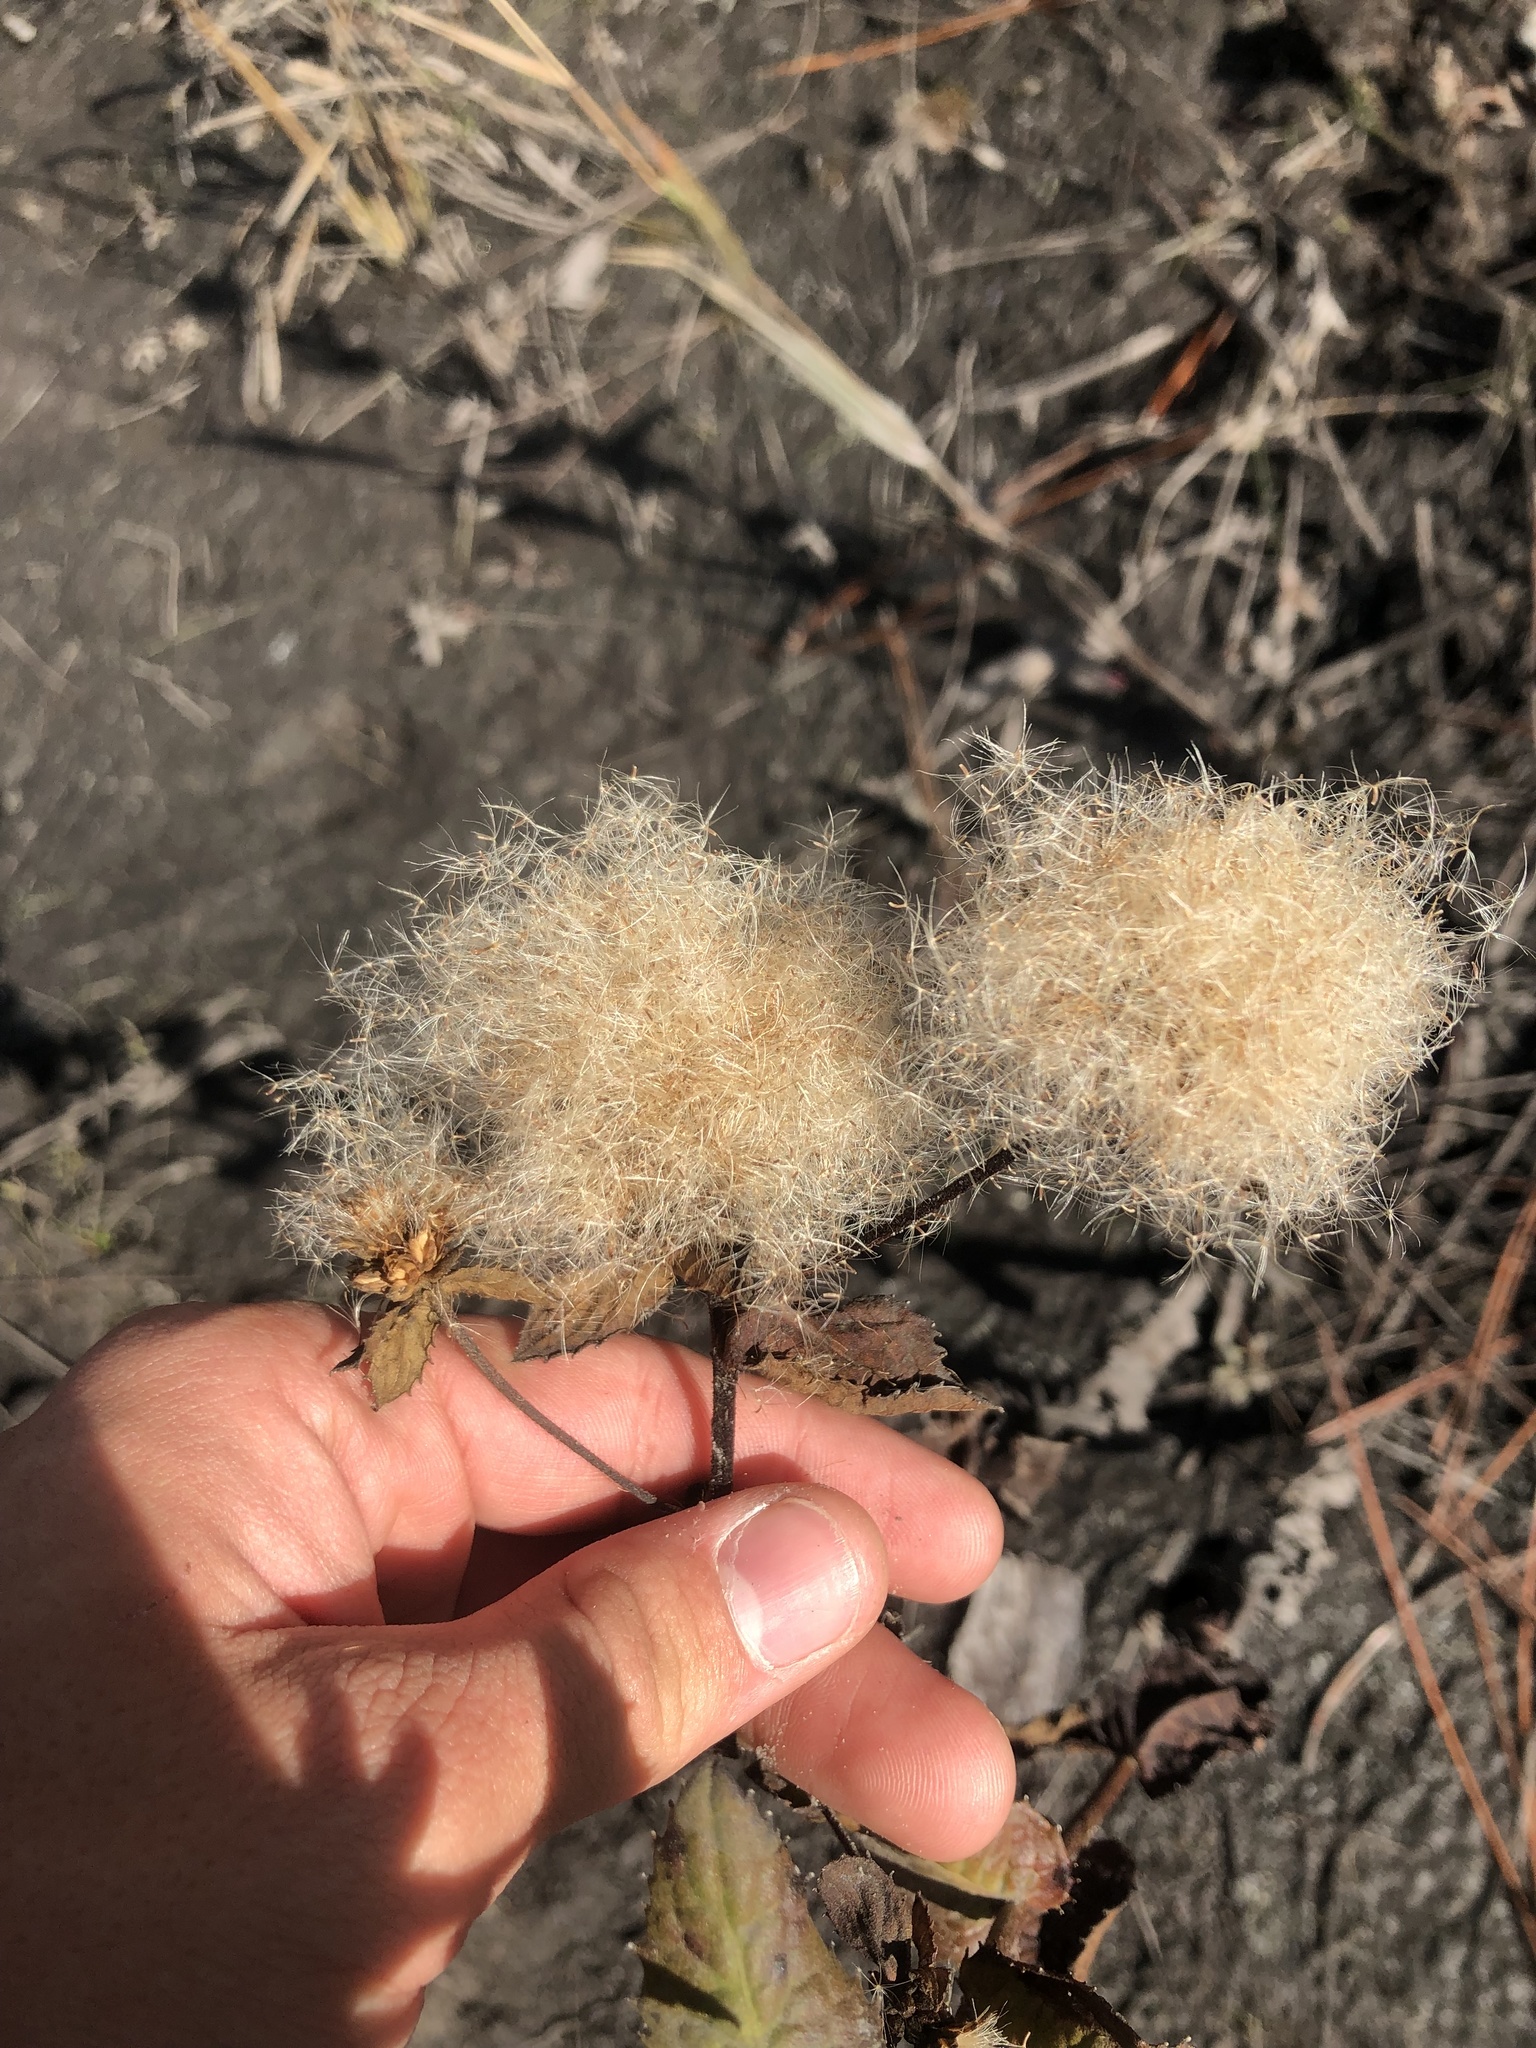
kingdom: Plantae
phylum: Tracheophyta
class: Magnoliopsida
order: Asterales
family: Asteraceae
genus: Pluchea
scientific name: Pluchea foetida
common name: Stinking camphorweed
